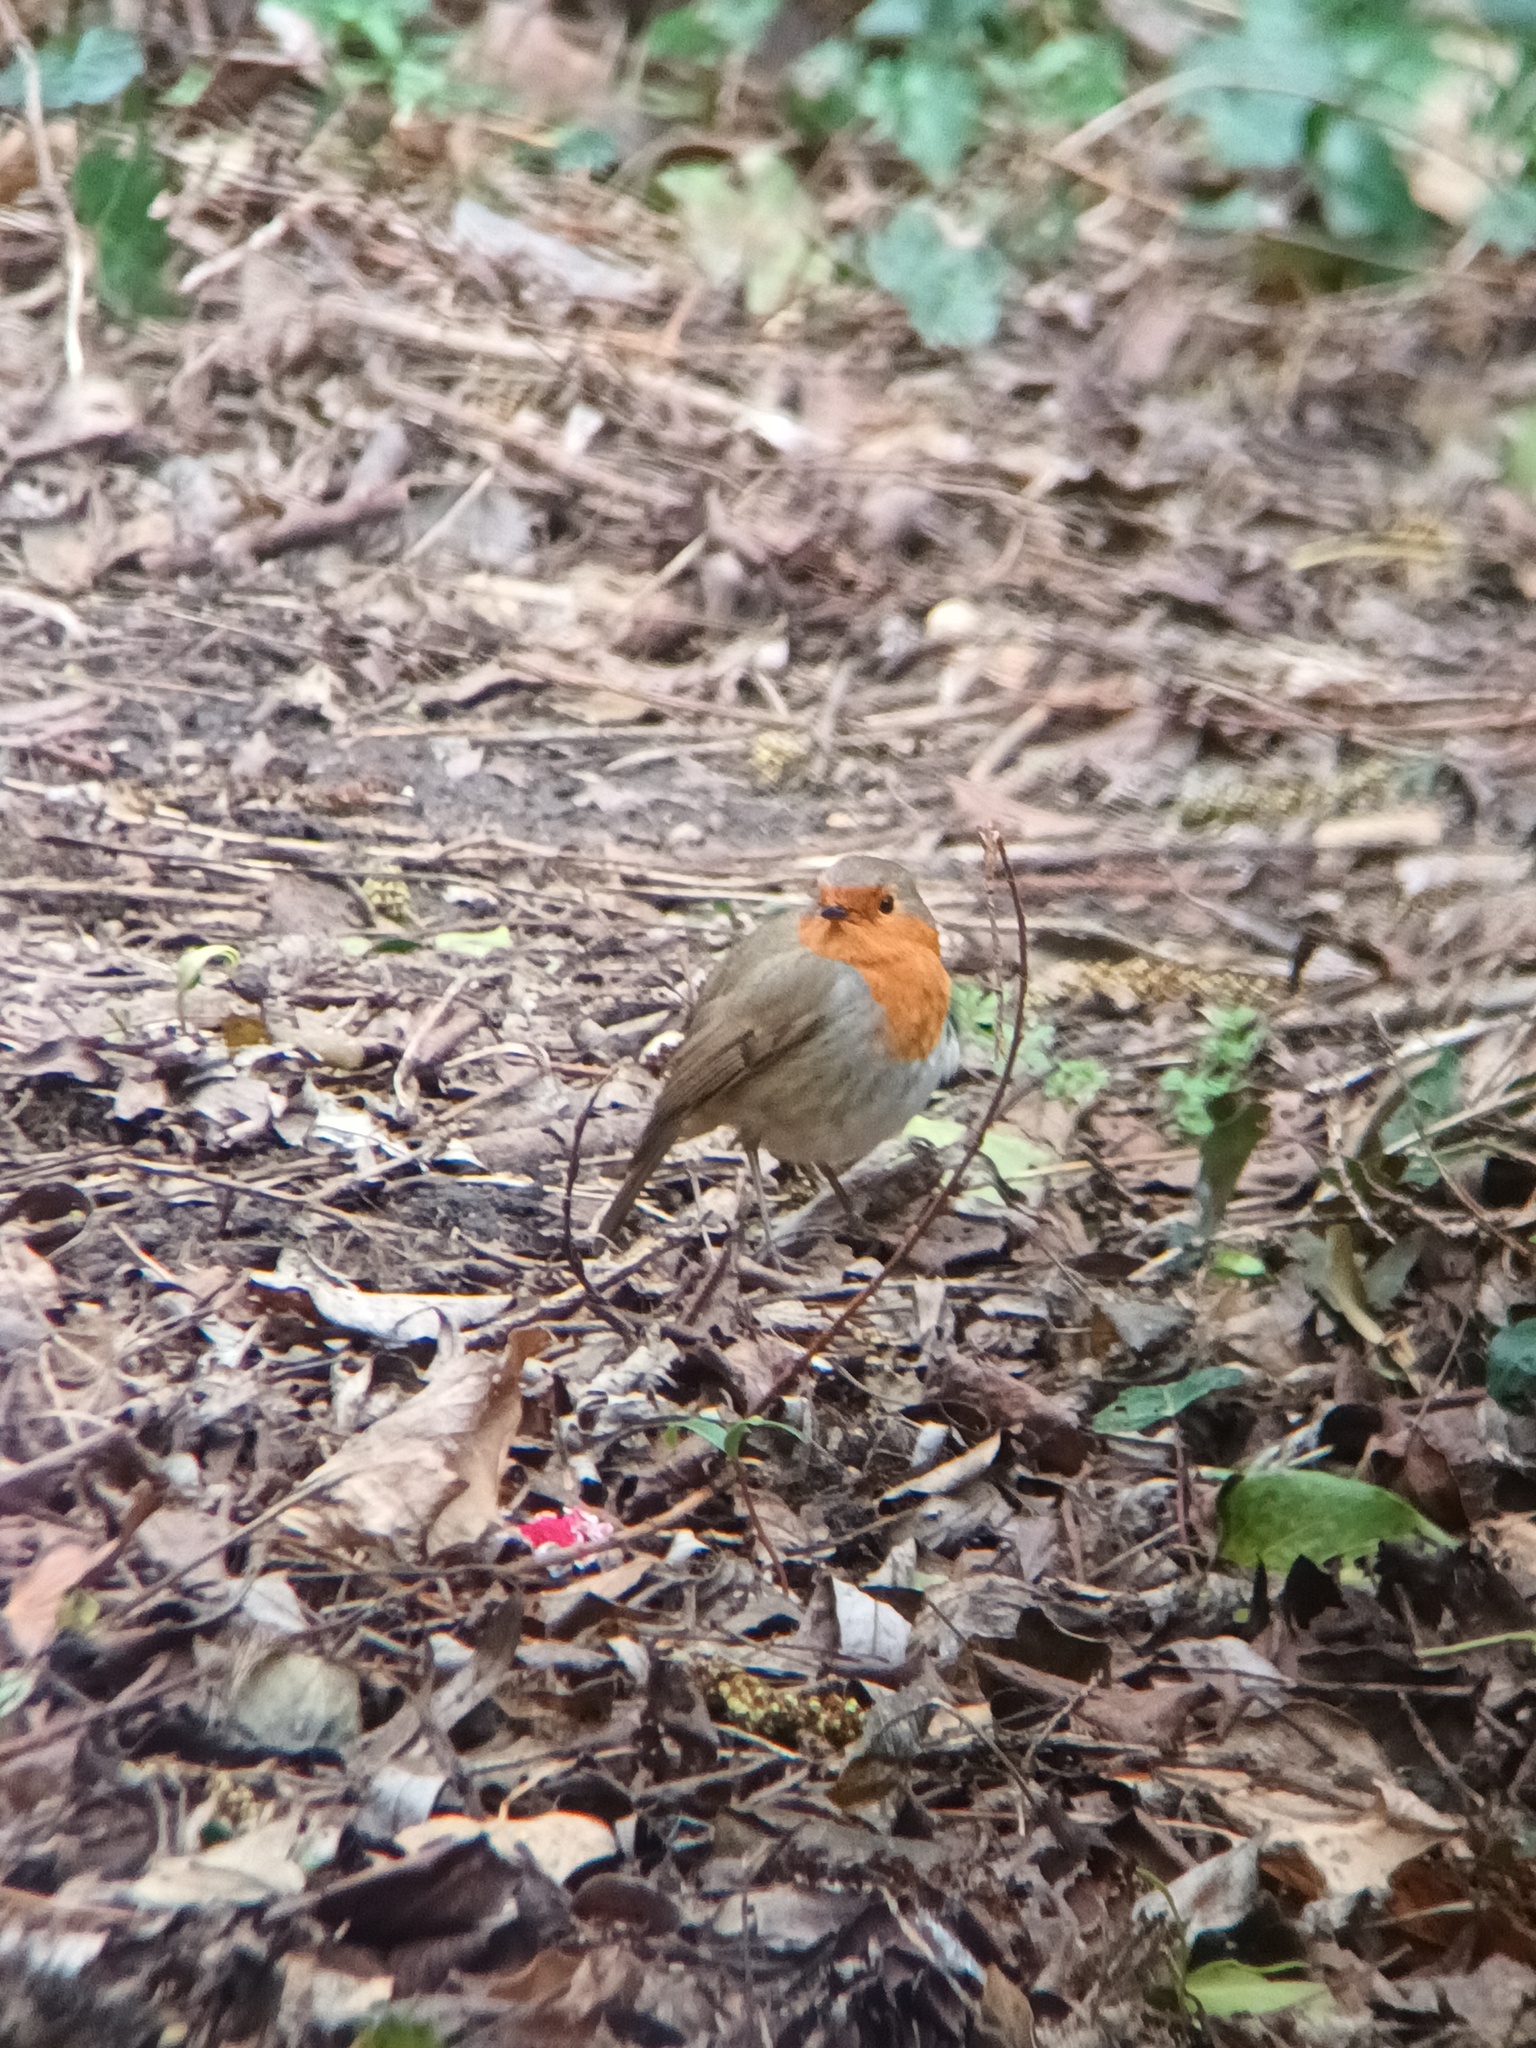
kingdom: Animalia
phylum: Chordata
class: Aves
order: Passeriformes
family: Muscicapidae
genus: Erithacus
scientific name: Erithacus rubecula
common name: European robin
